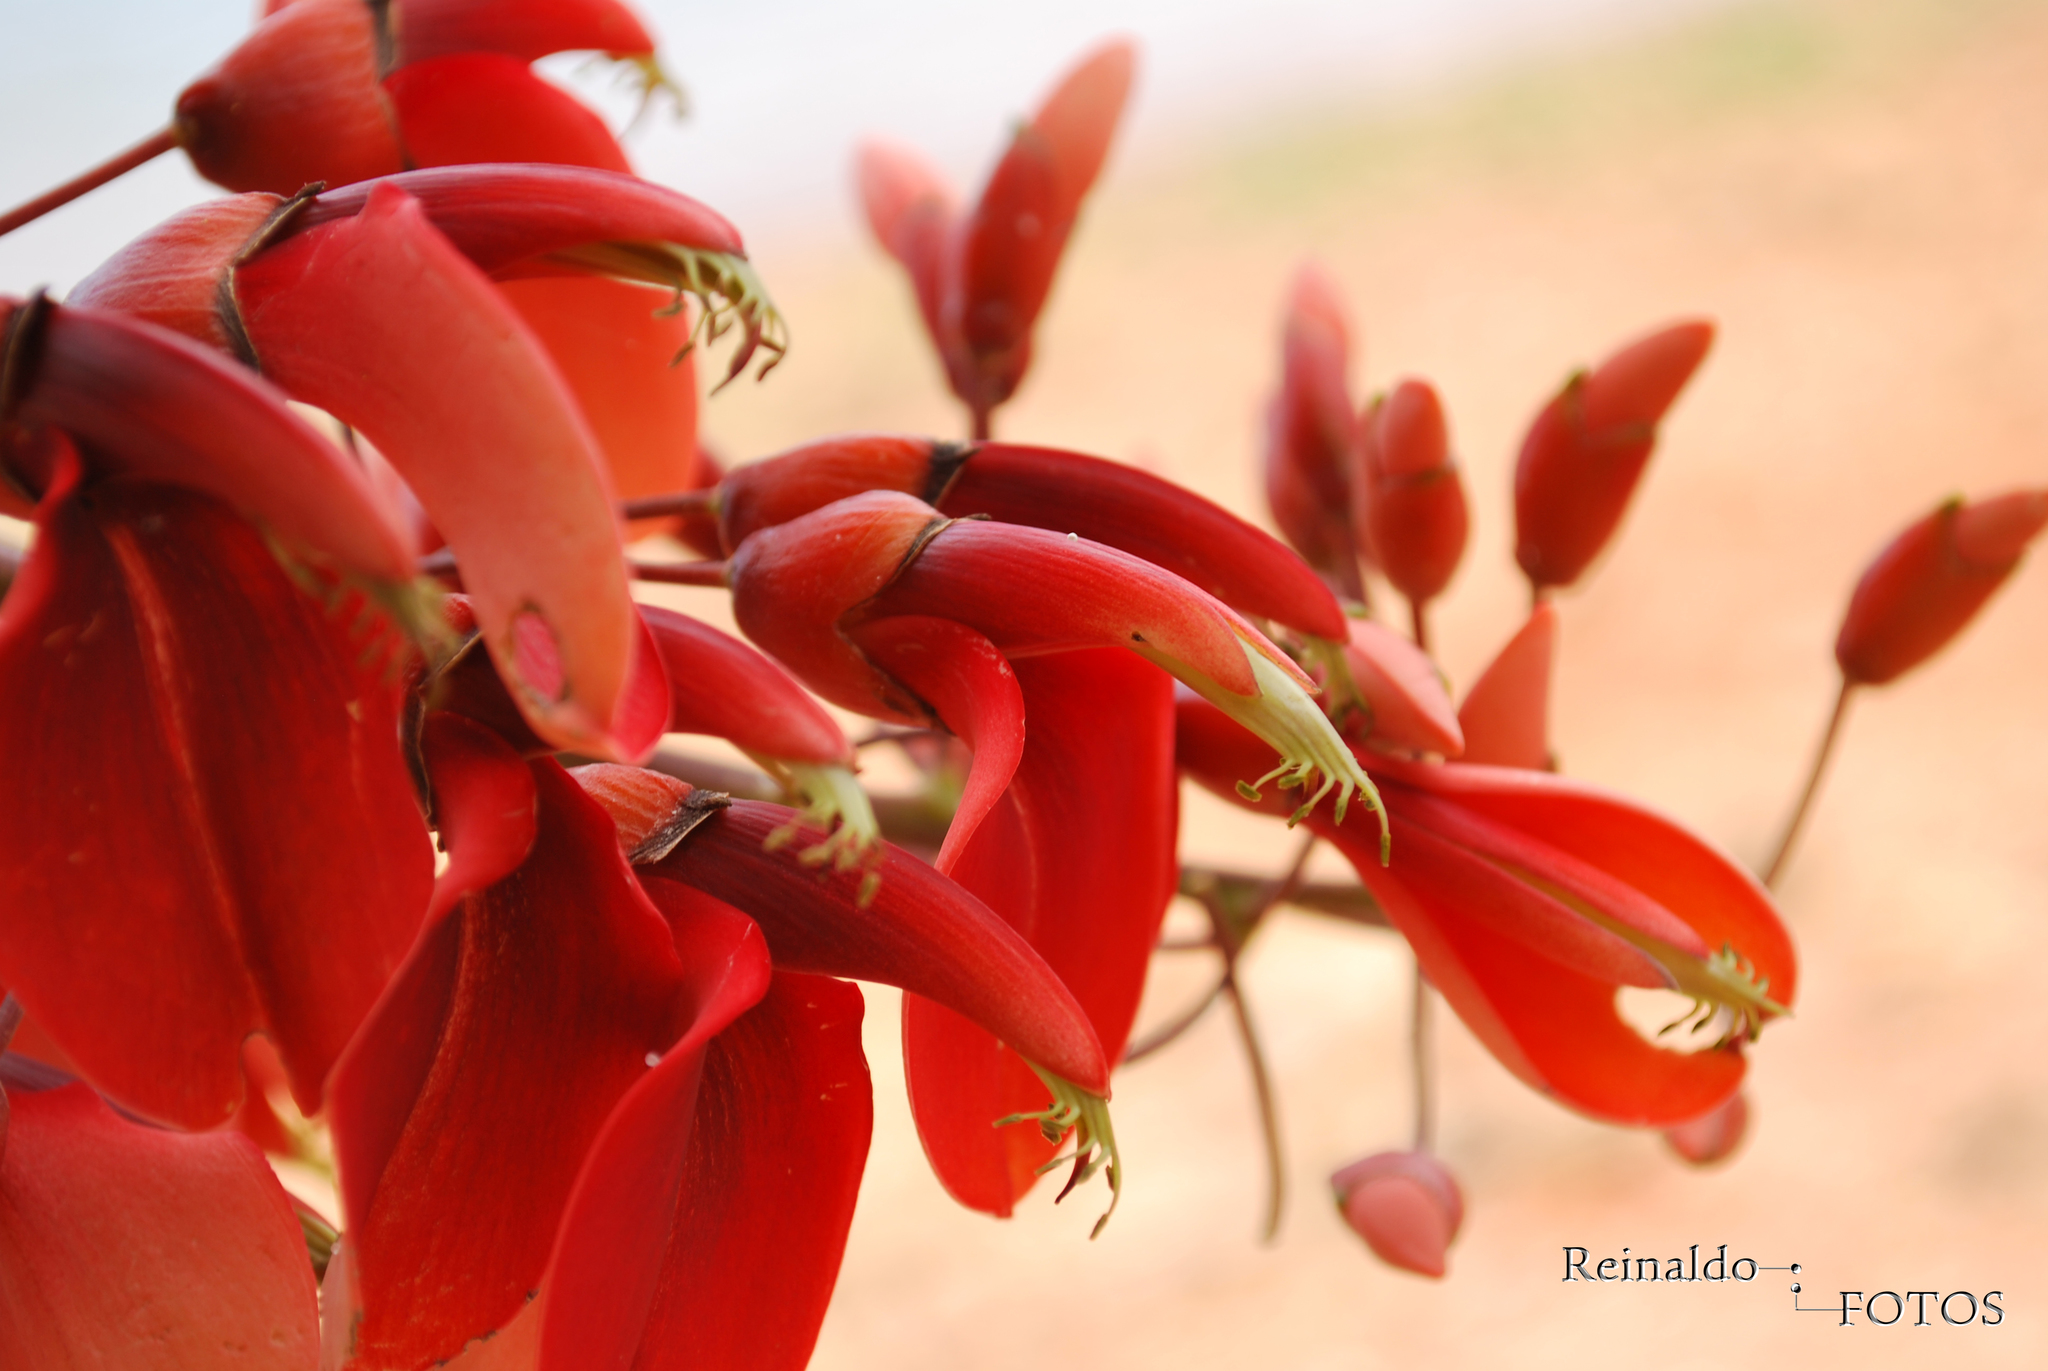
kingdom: Plantae
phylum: Tracheophyta
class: Magnoliopsida
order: Fabales
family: Fabaceae
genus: Erythrina
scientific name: Erythrina crista-galli
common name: Cockspur coral tree
